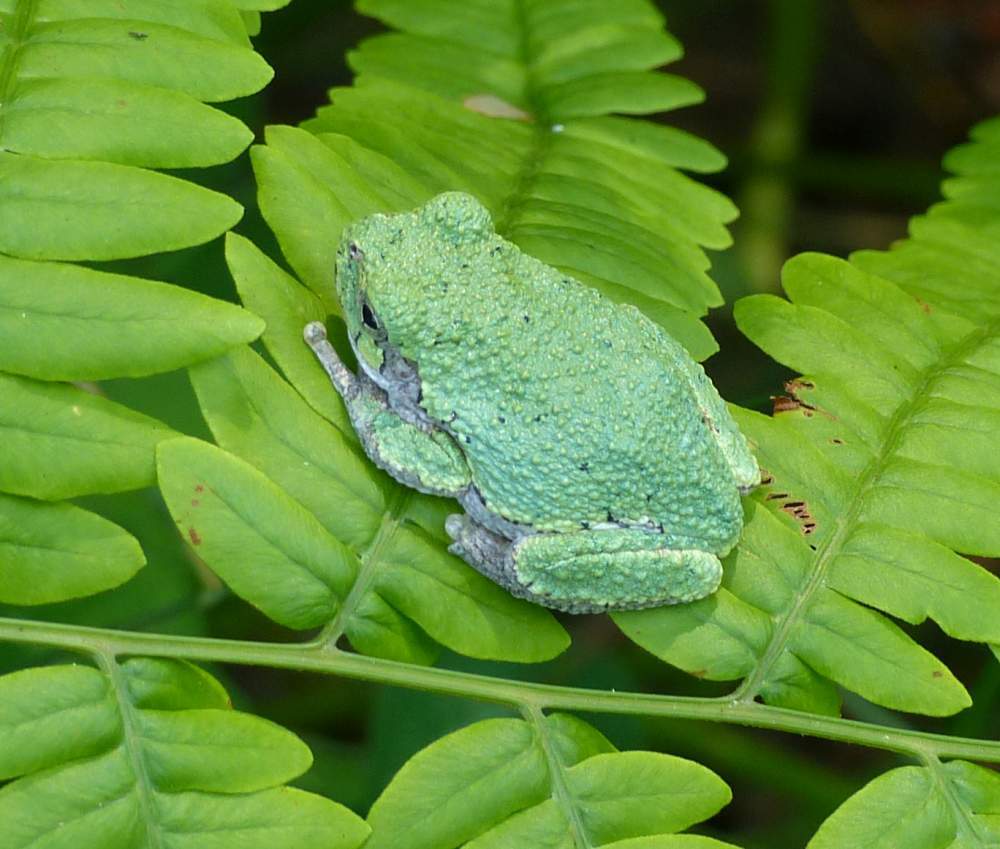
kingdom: Animalia
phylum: Chordata
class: Amphibia
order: Anura
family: Hylidae
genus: Dryophytes
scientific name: Dryophytes versicolor
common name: Gray treefrog
